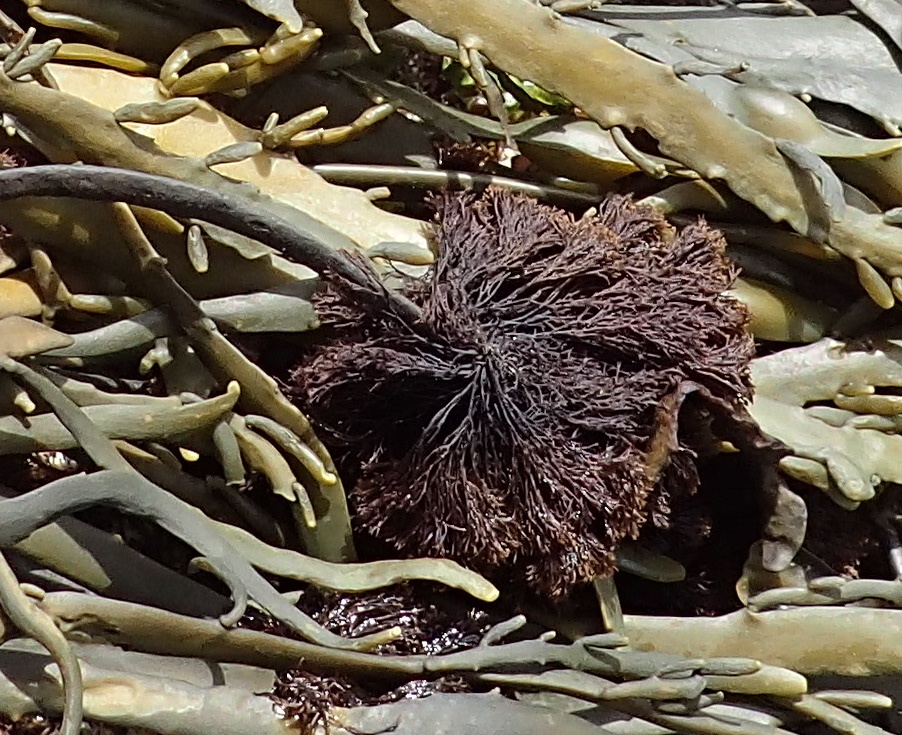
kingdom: Plantae
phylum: Rhodophyta
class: Florideophyceae
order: Ceramiales
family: Rhodomelaceae
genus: Vertebrata
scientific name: Vertebrata lanosa
